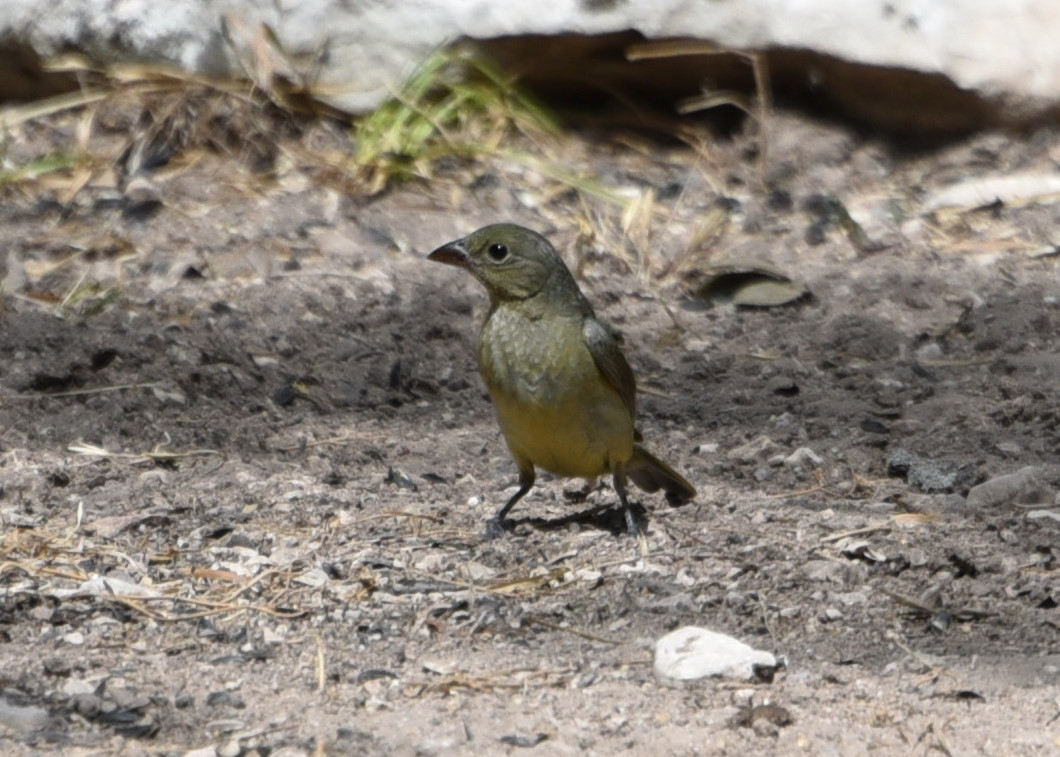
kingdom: Animalia
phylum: Chordata
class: Aves
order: Passeriformes
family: Cardinalidae
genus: Passerina
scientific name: Passerina ciris
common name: Painted bunting
